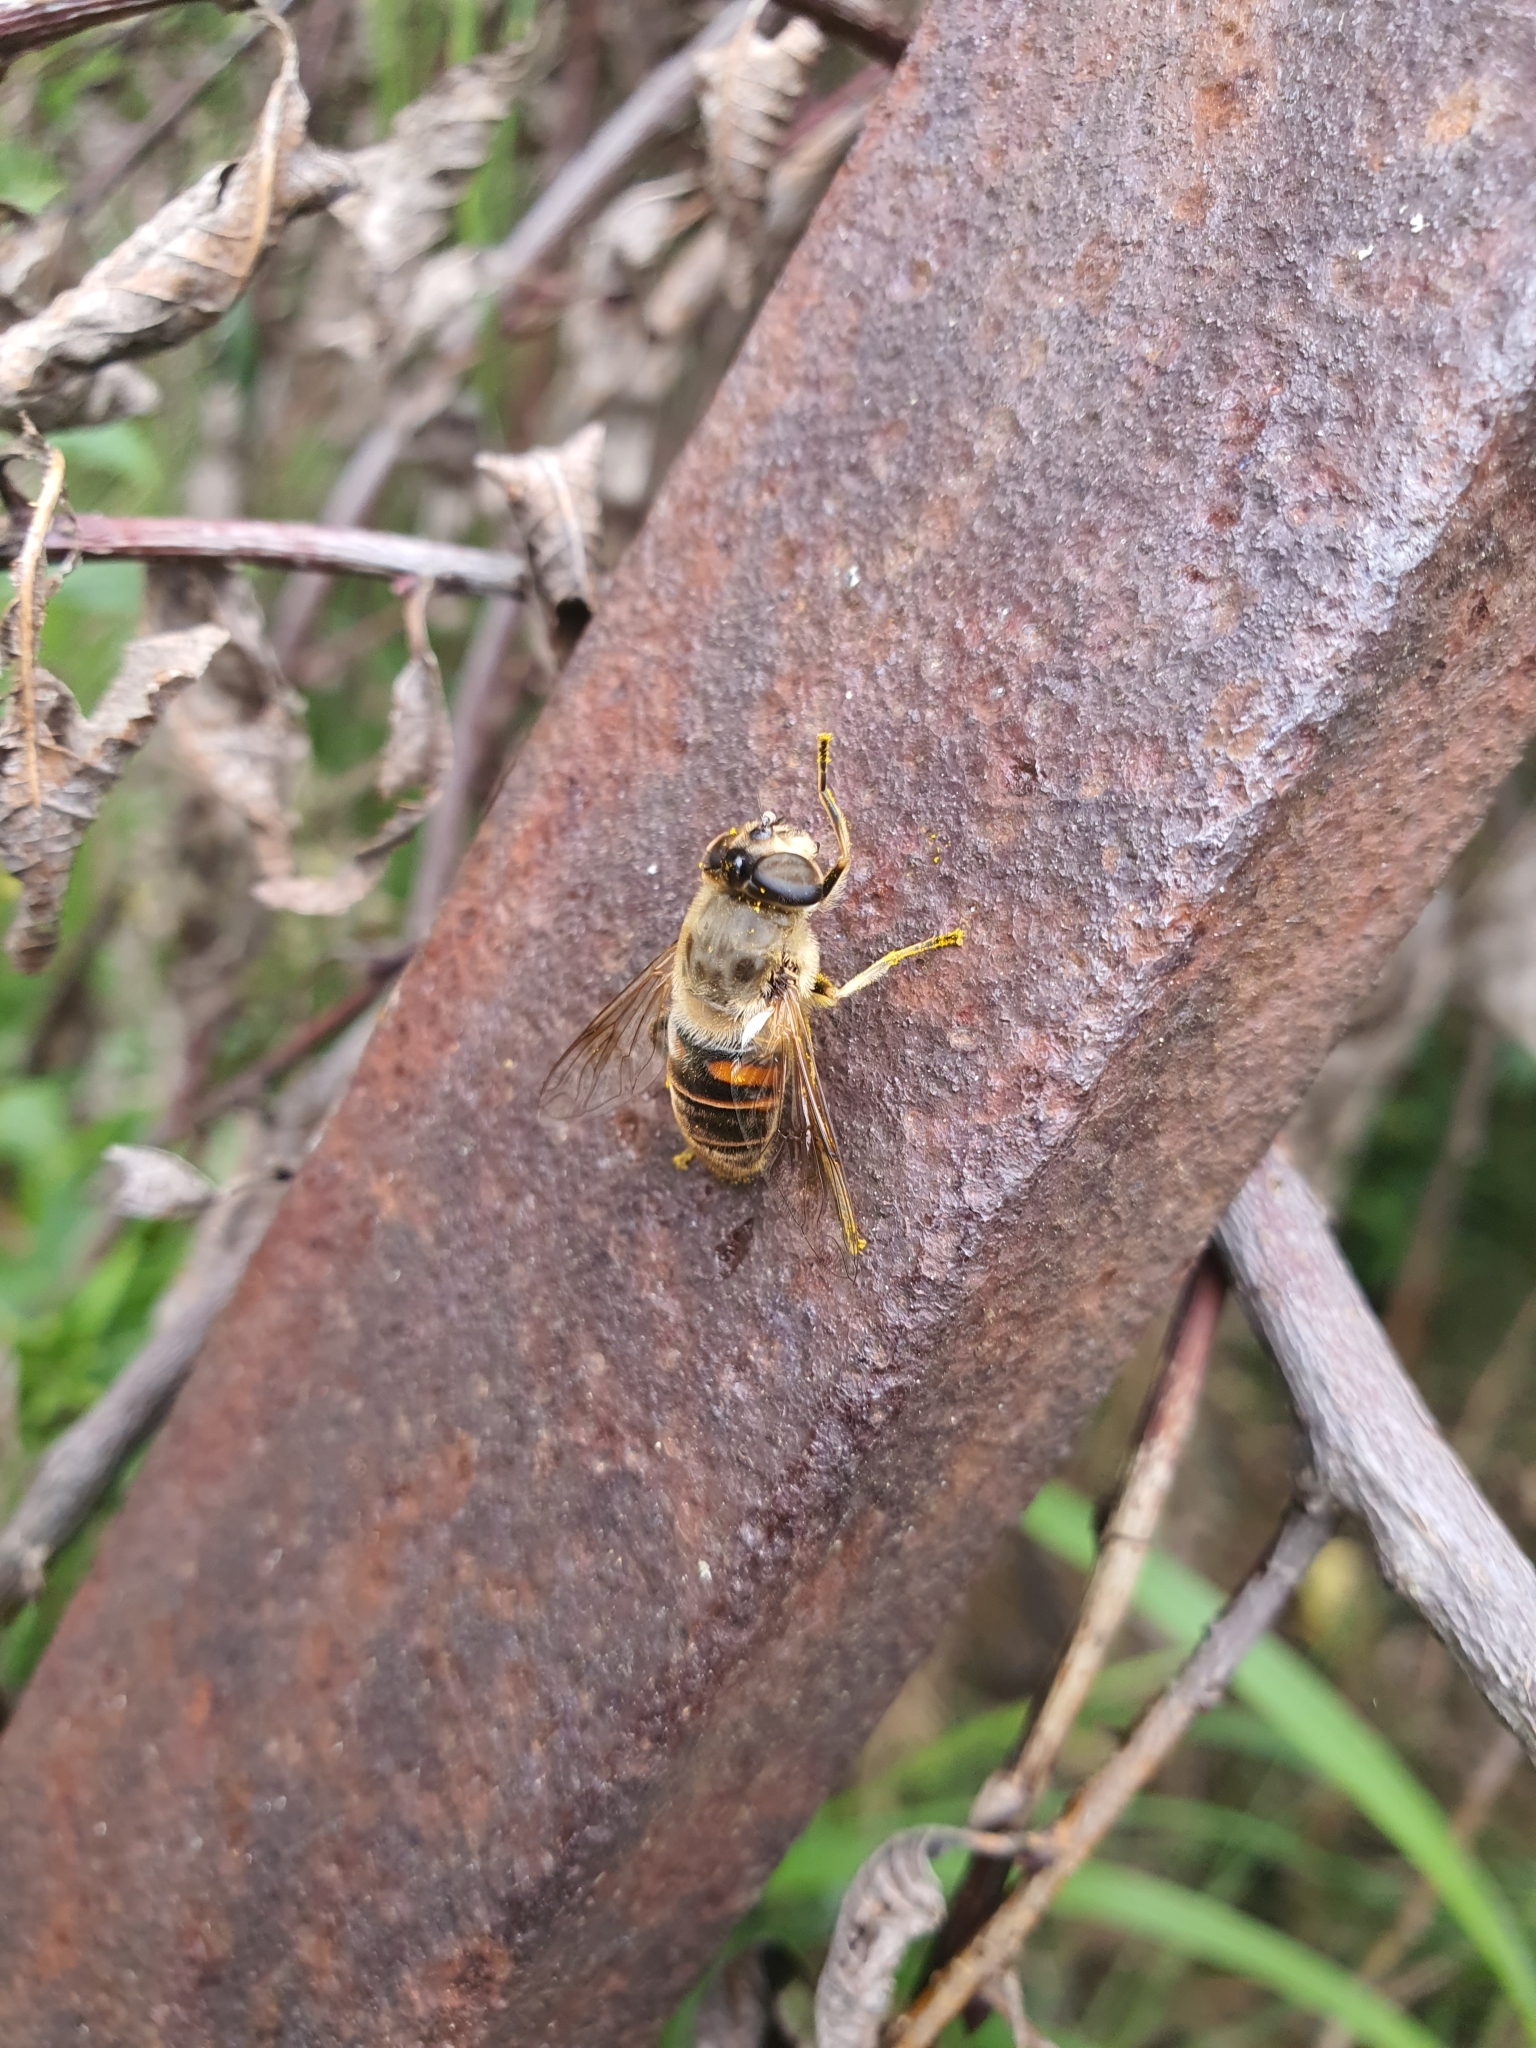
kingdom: Animalia
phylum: Arthropoda
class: Insecta
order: Diptera
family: Syrphidae
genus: Eristalis
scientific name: Eristalis tenax
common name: Drone fly
